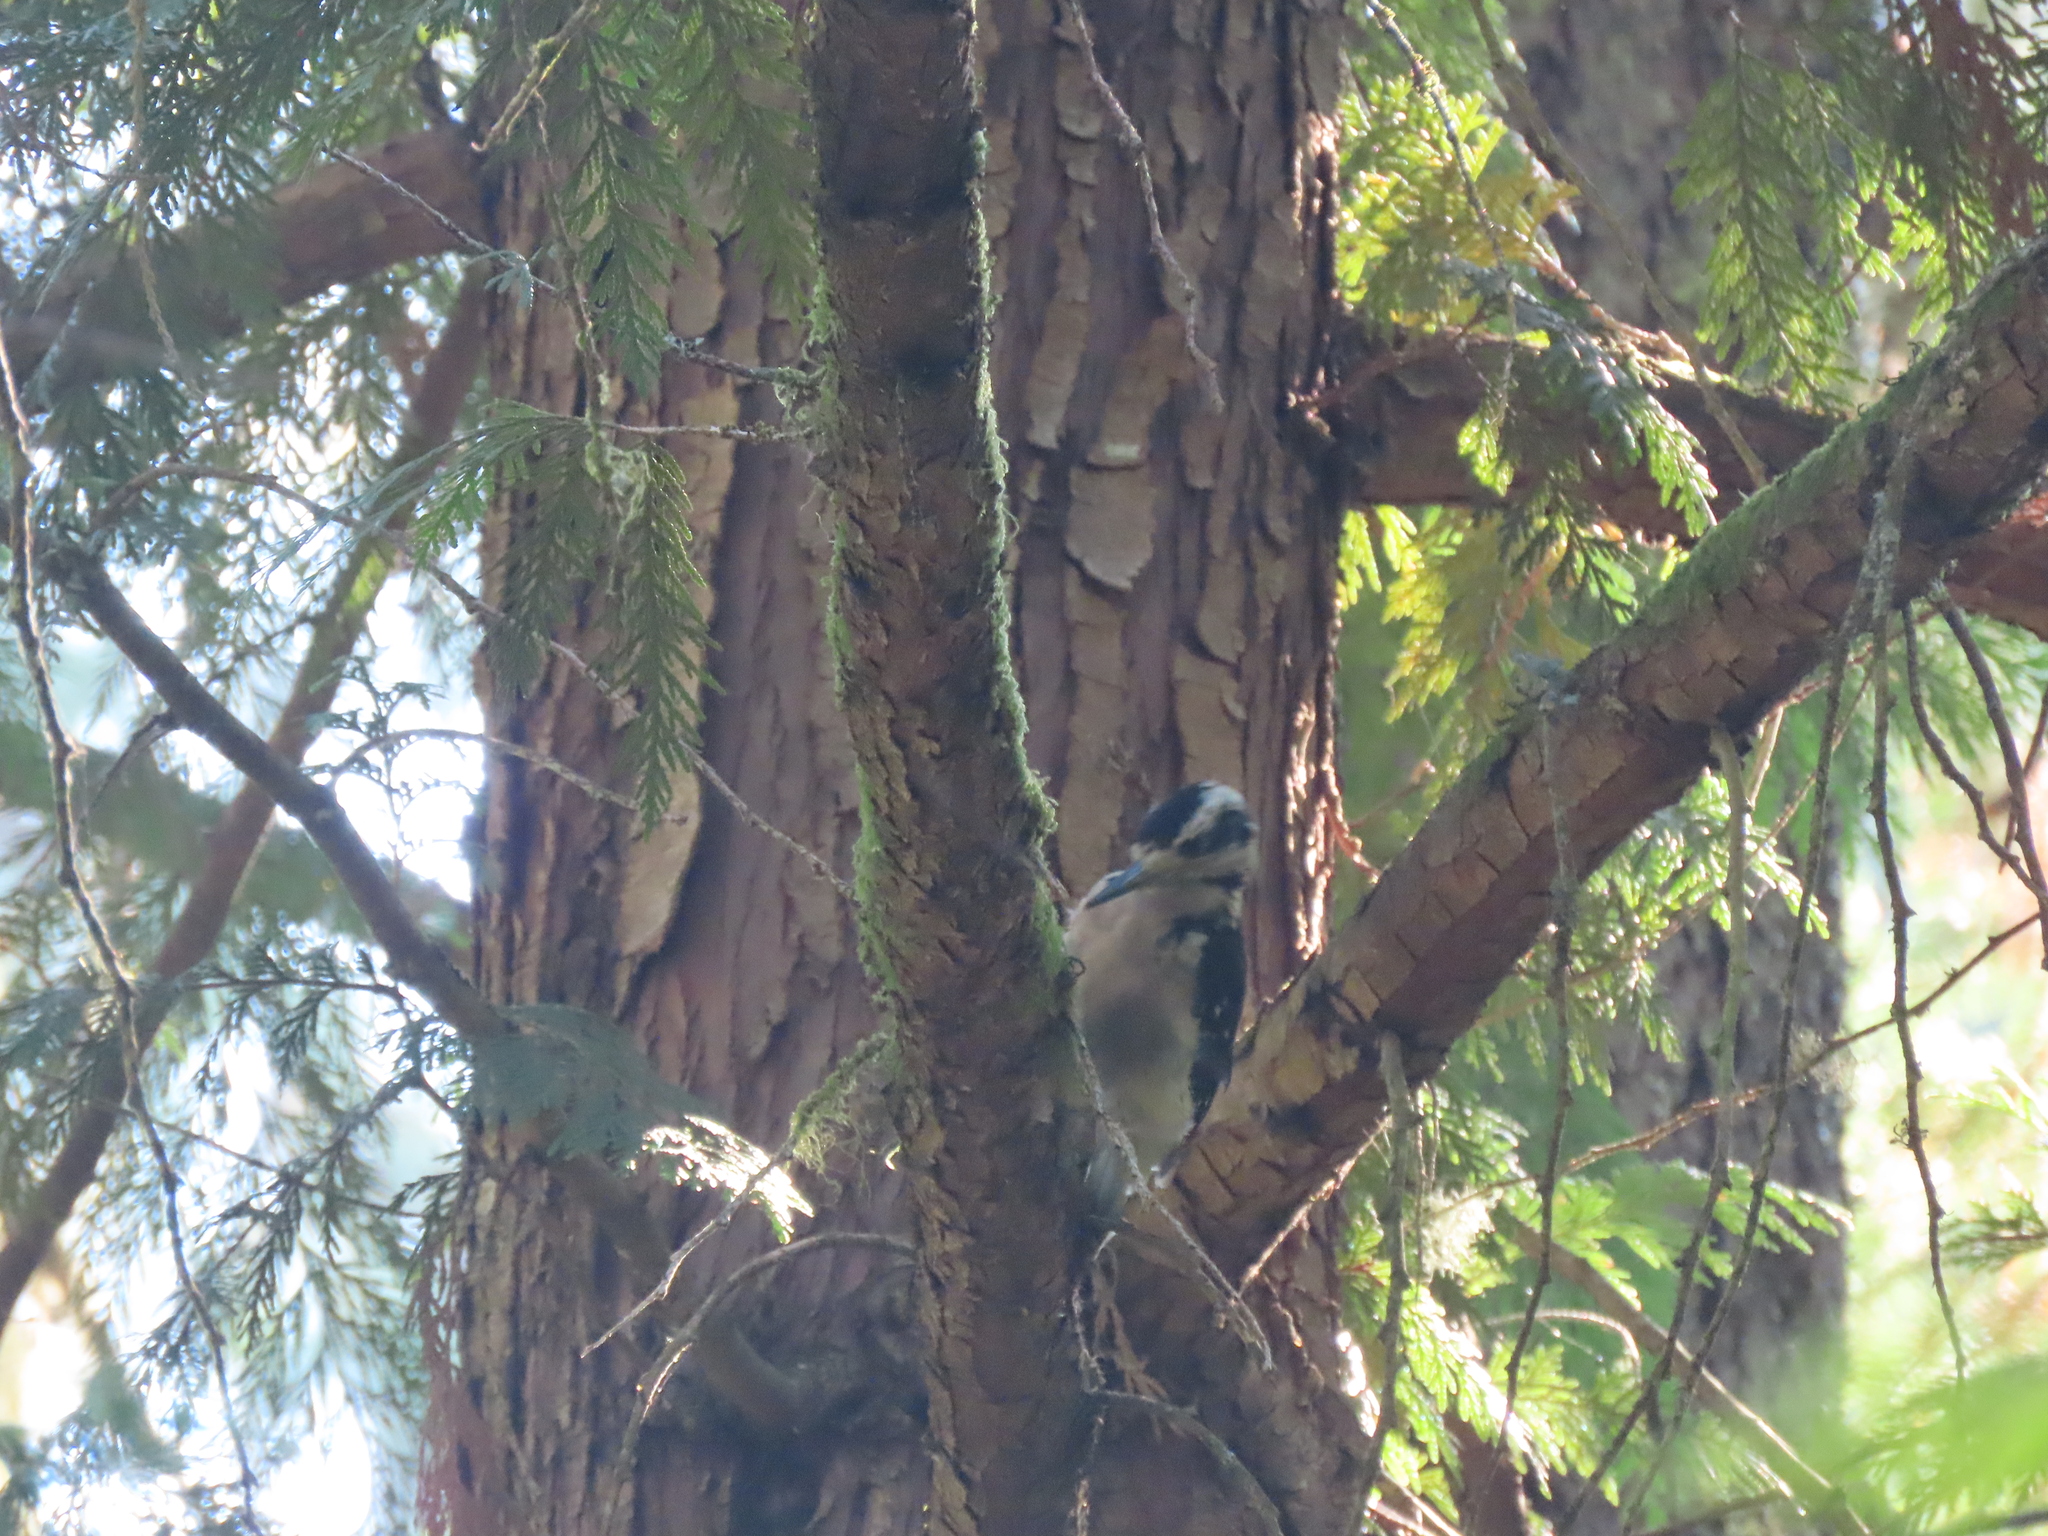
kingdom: Animalia
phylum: Chordata
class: Aves
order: Piciformes
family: Picidae
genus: Leuconotopicus
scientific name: Leuconotopicus villosus
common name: Hairy woodpecker
